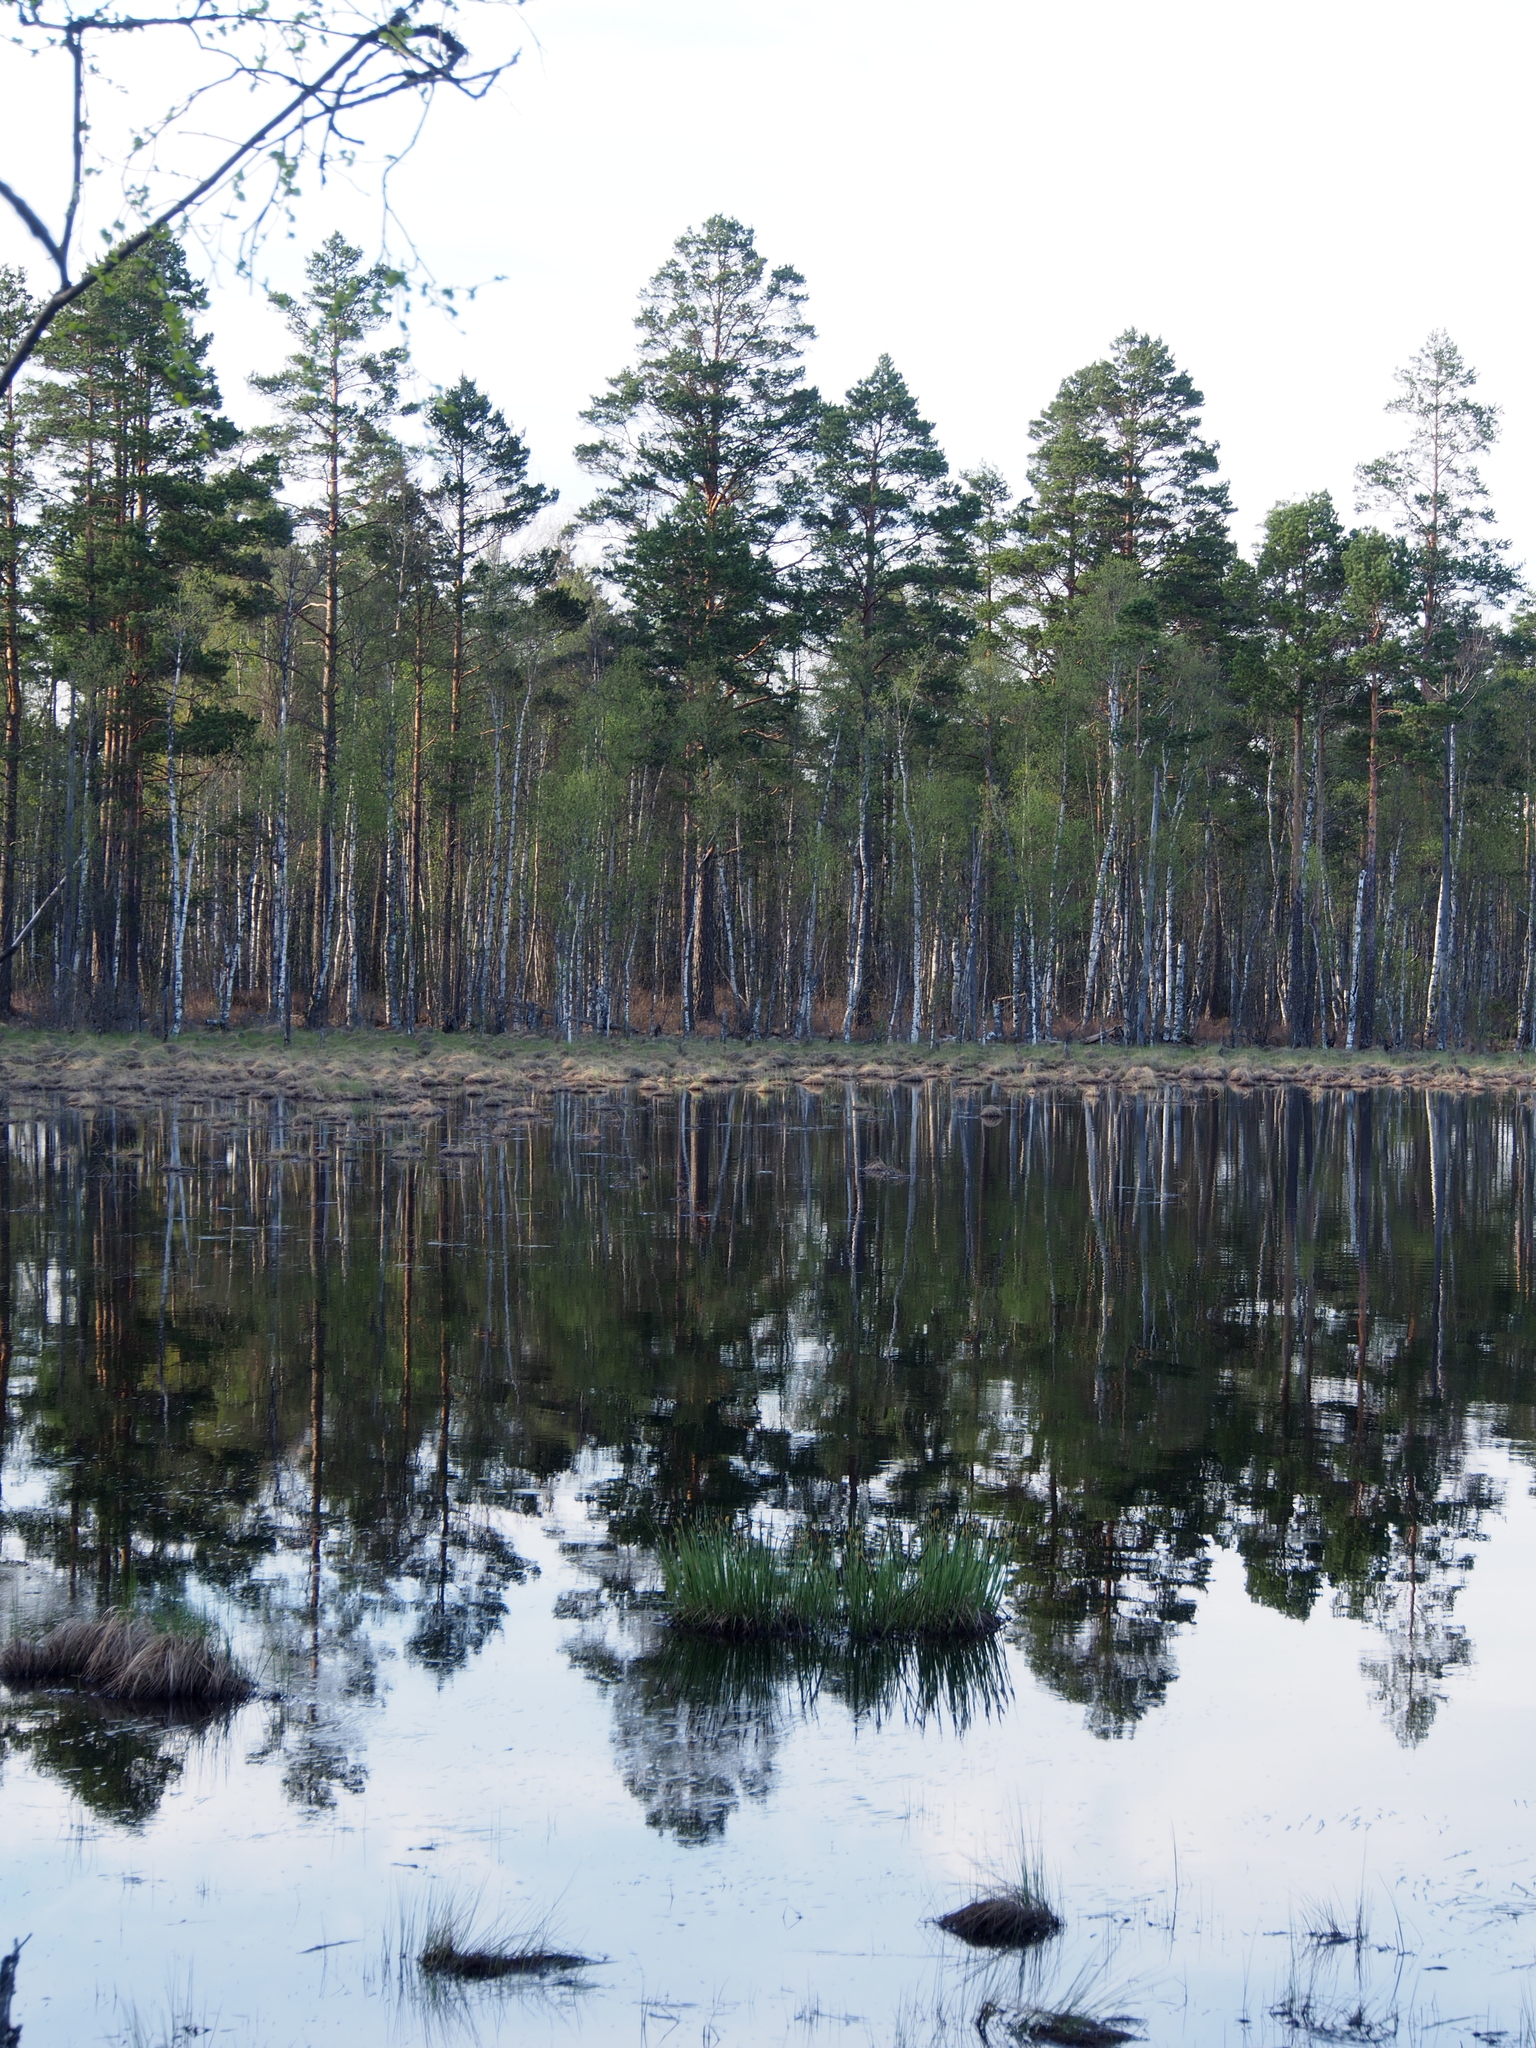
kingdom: Plantae
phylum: Tracheophyta
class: Pinopsida
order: Pinales
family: Pinaceae
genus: Pinus
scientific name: Pinus sylvestris
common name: Scots pine
